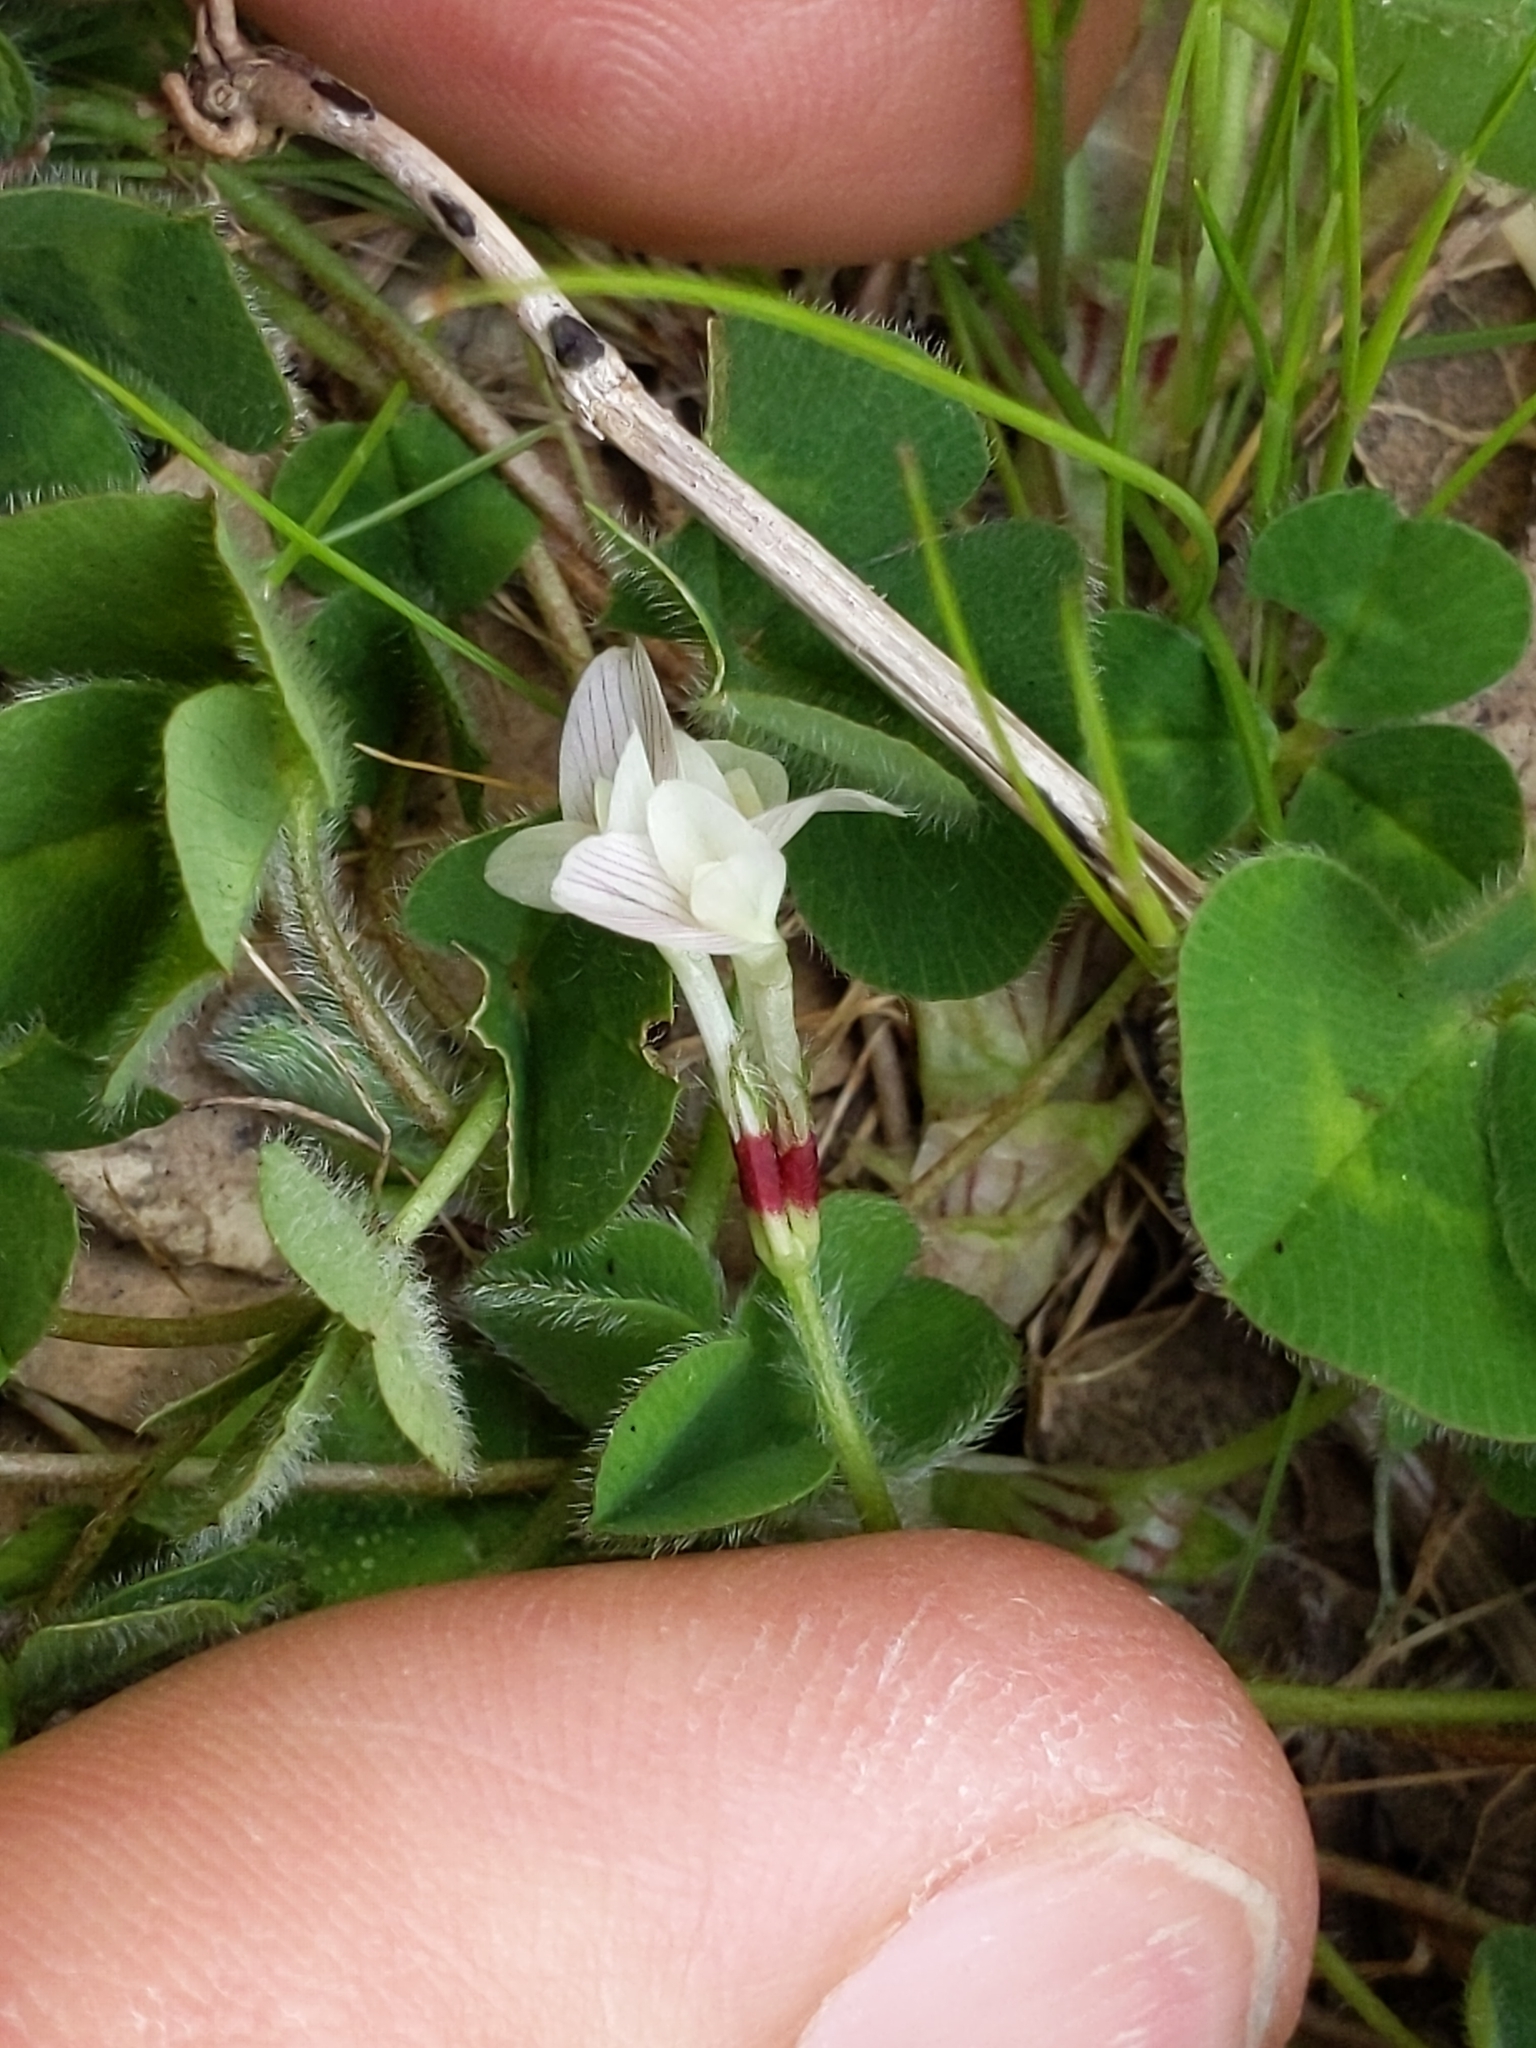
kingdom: Plantae
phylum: Tracheophyta
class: Magnoliopsida
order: Fabales
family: Fabaceae
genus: Trifolium
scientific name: Trifolium subterraneum
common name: Subterranean clover
